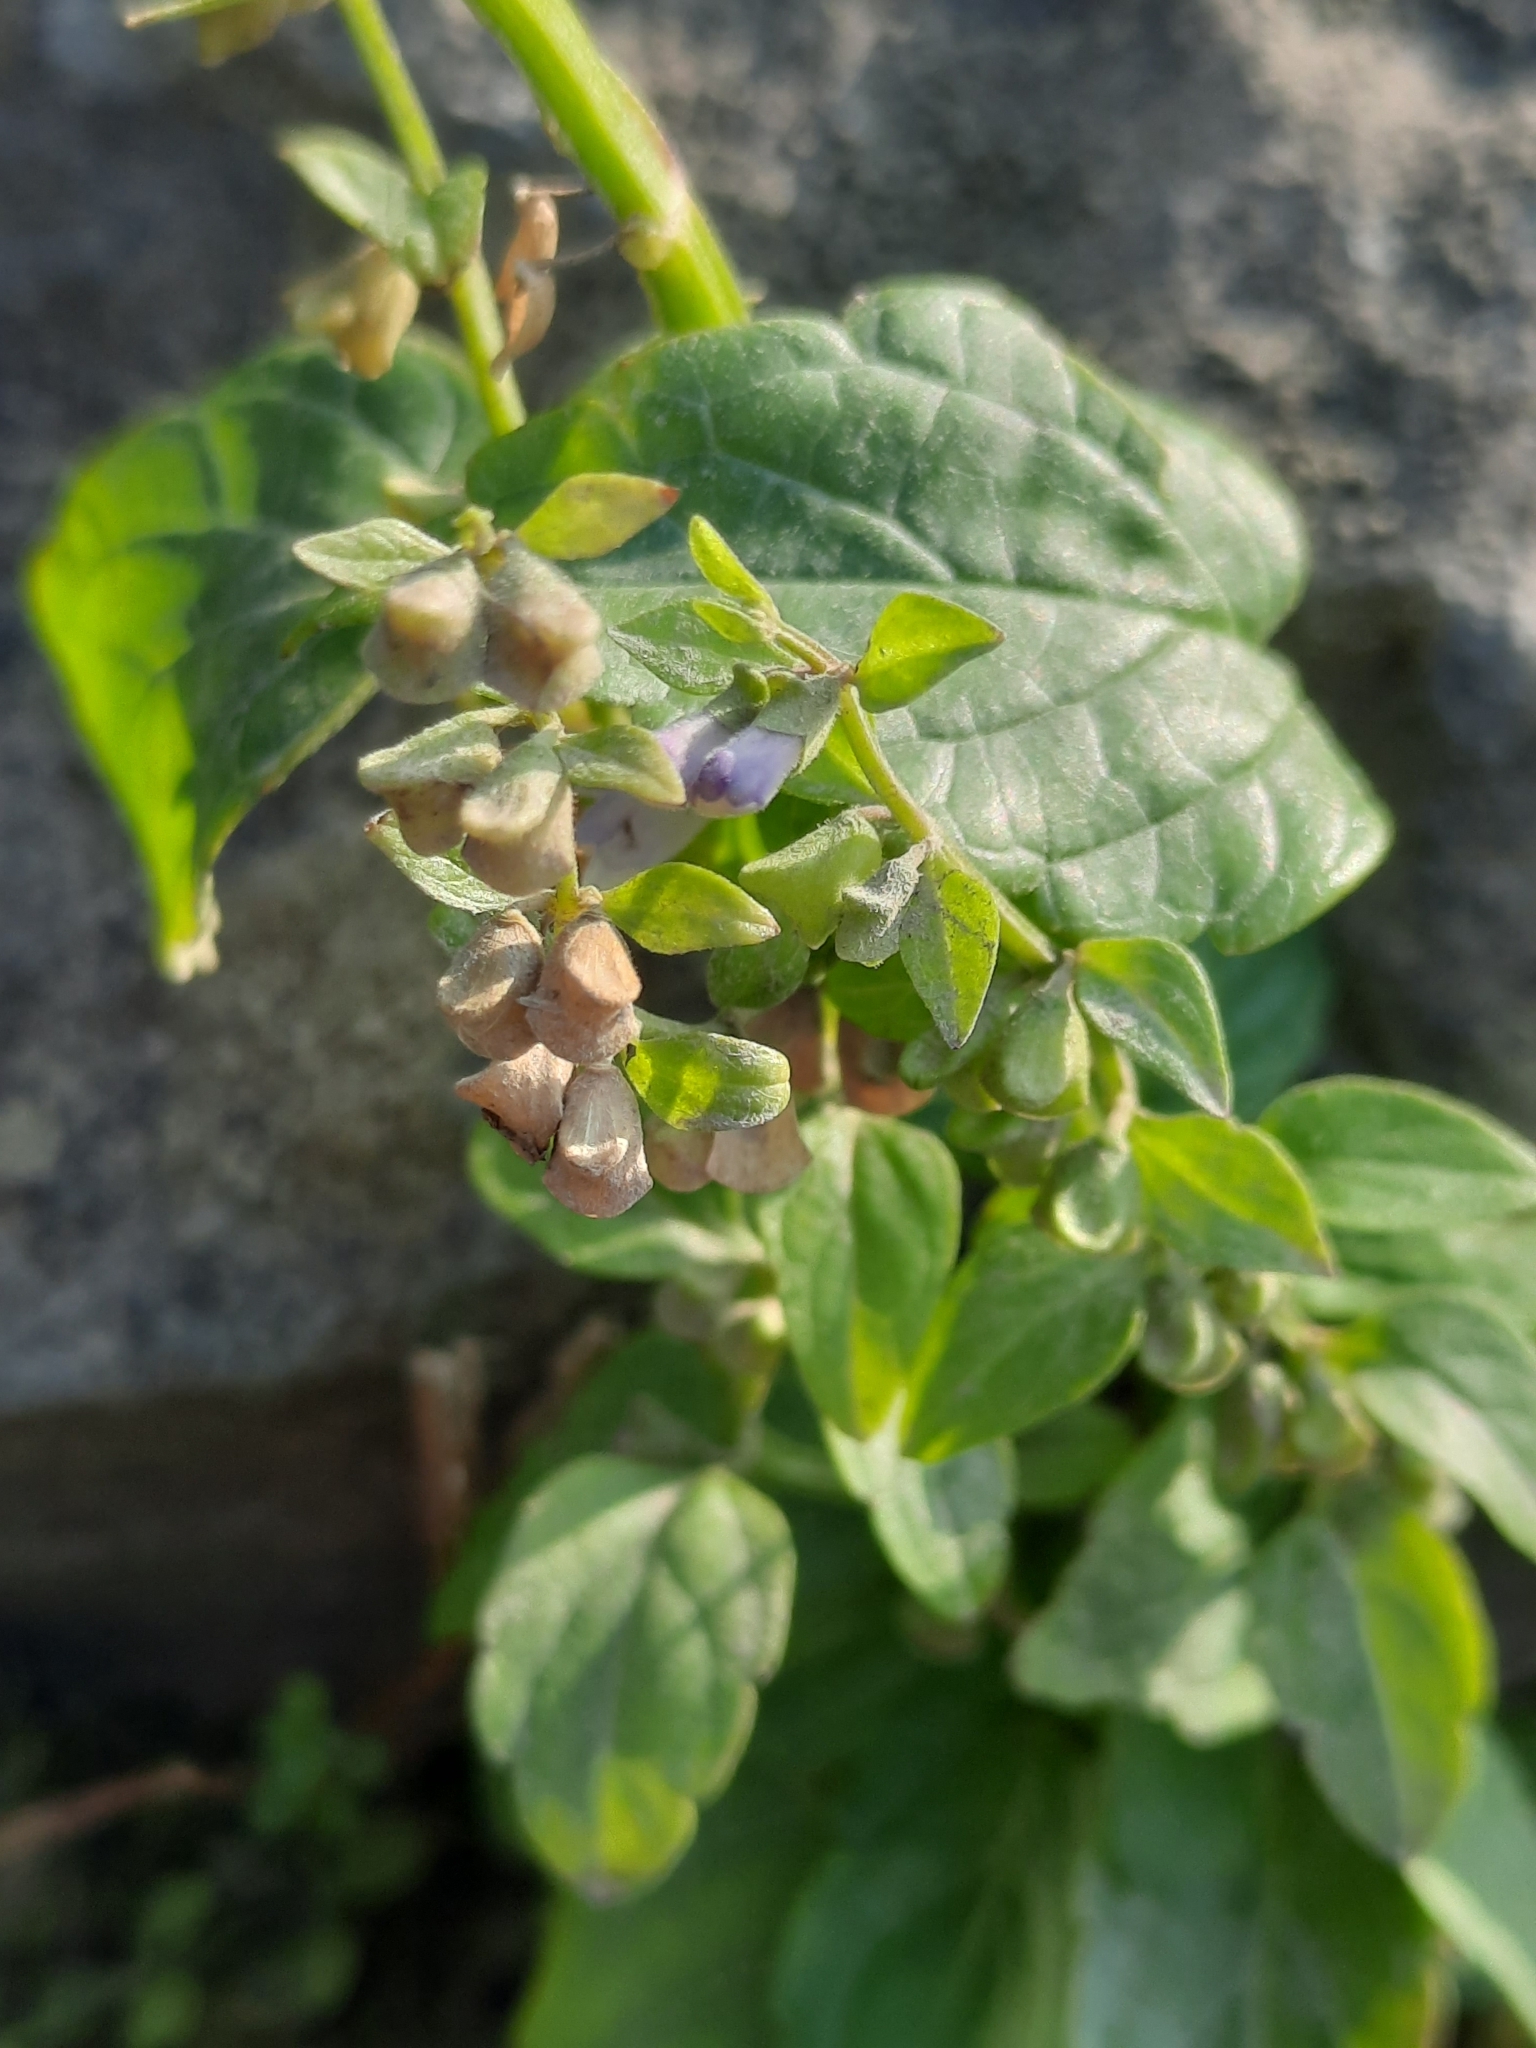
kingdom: Plantae
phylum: Tracheophyta
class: Magnoliopsida
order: Lamiales
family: Lamiaceae
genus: Scutellaria
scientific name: Scutellaria lateriflora
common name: Blue skullcap
